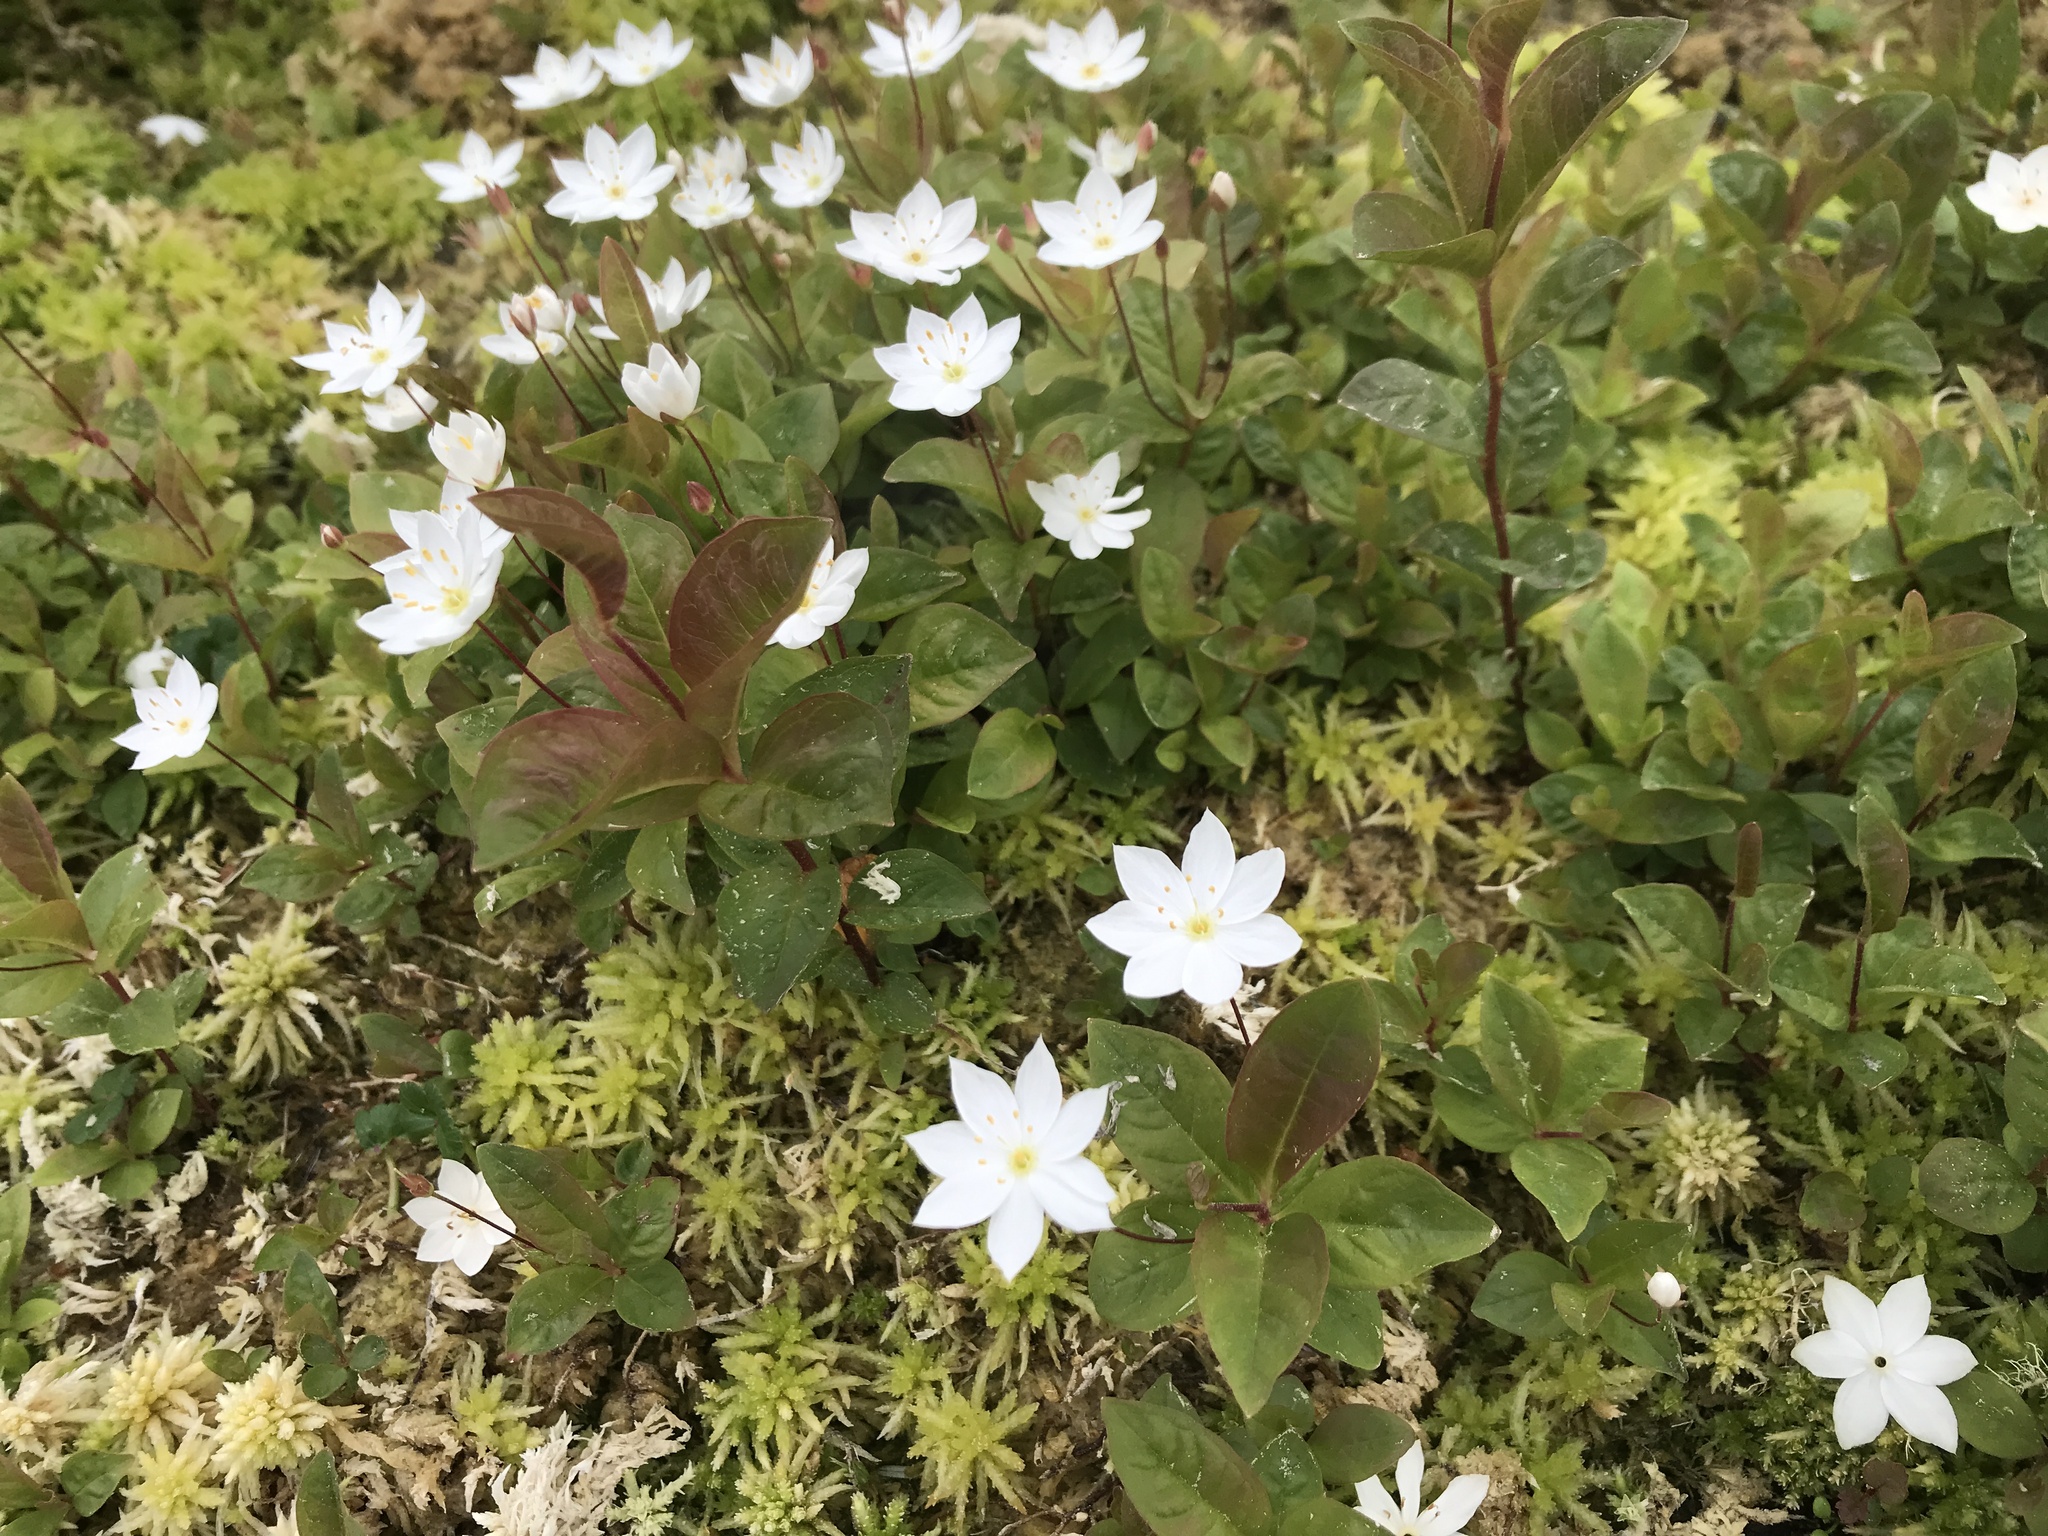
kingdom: Plantae
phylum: Tracheophyta
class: Magnoliopsida
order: Ericales
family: Primulaceae
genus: Lysimachia
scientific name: Lysimachia europaea
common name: Arctic starflower
